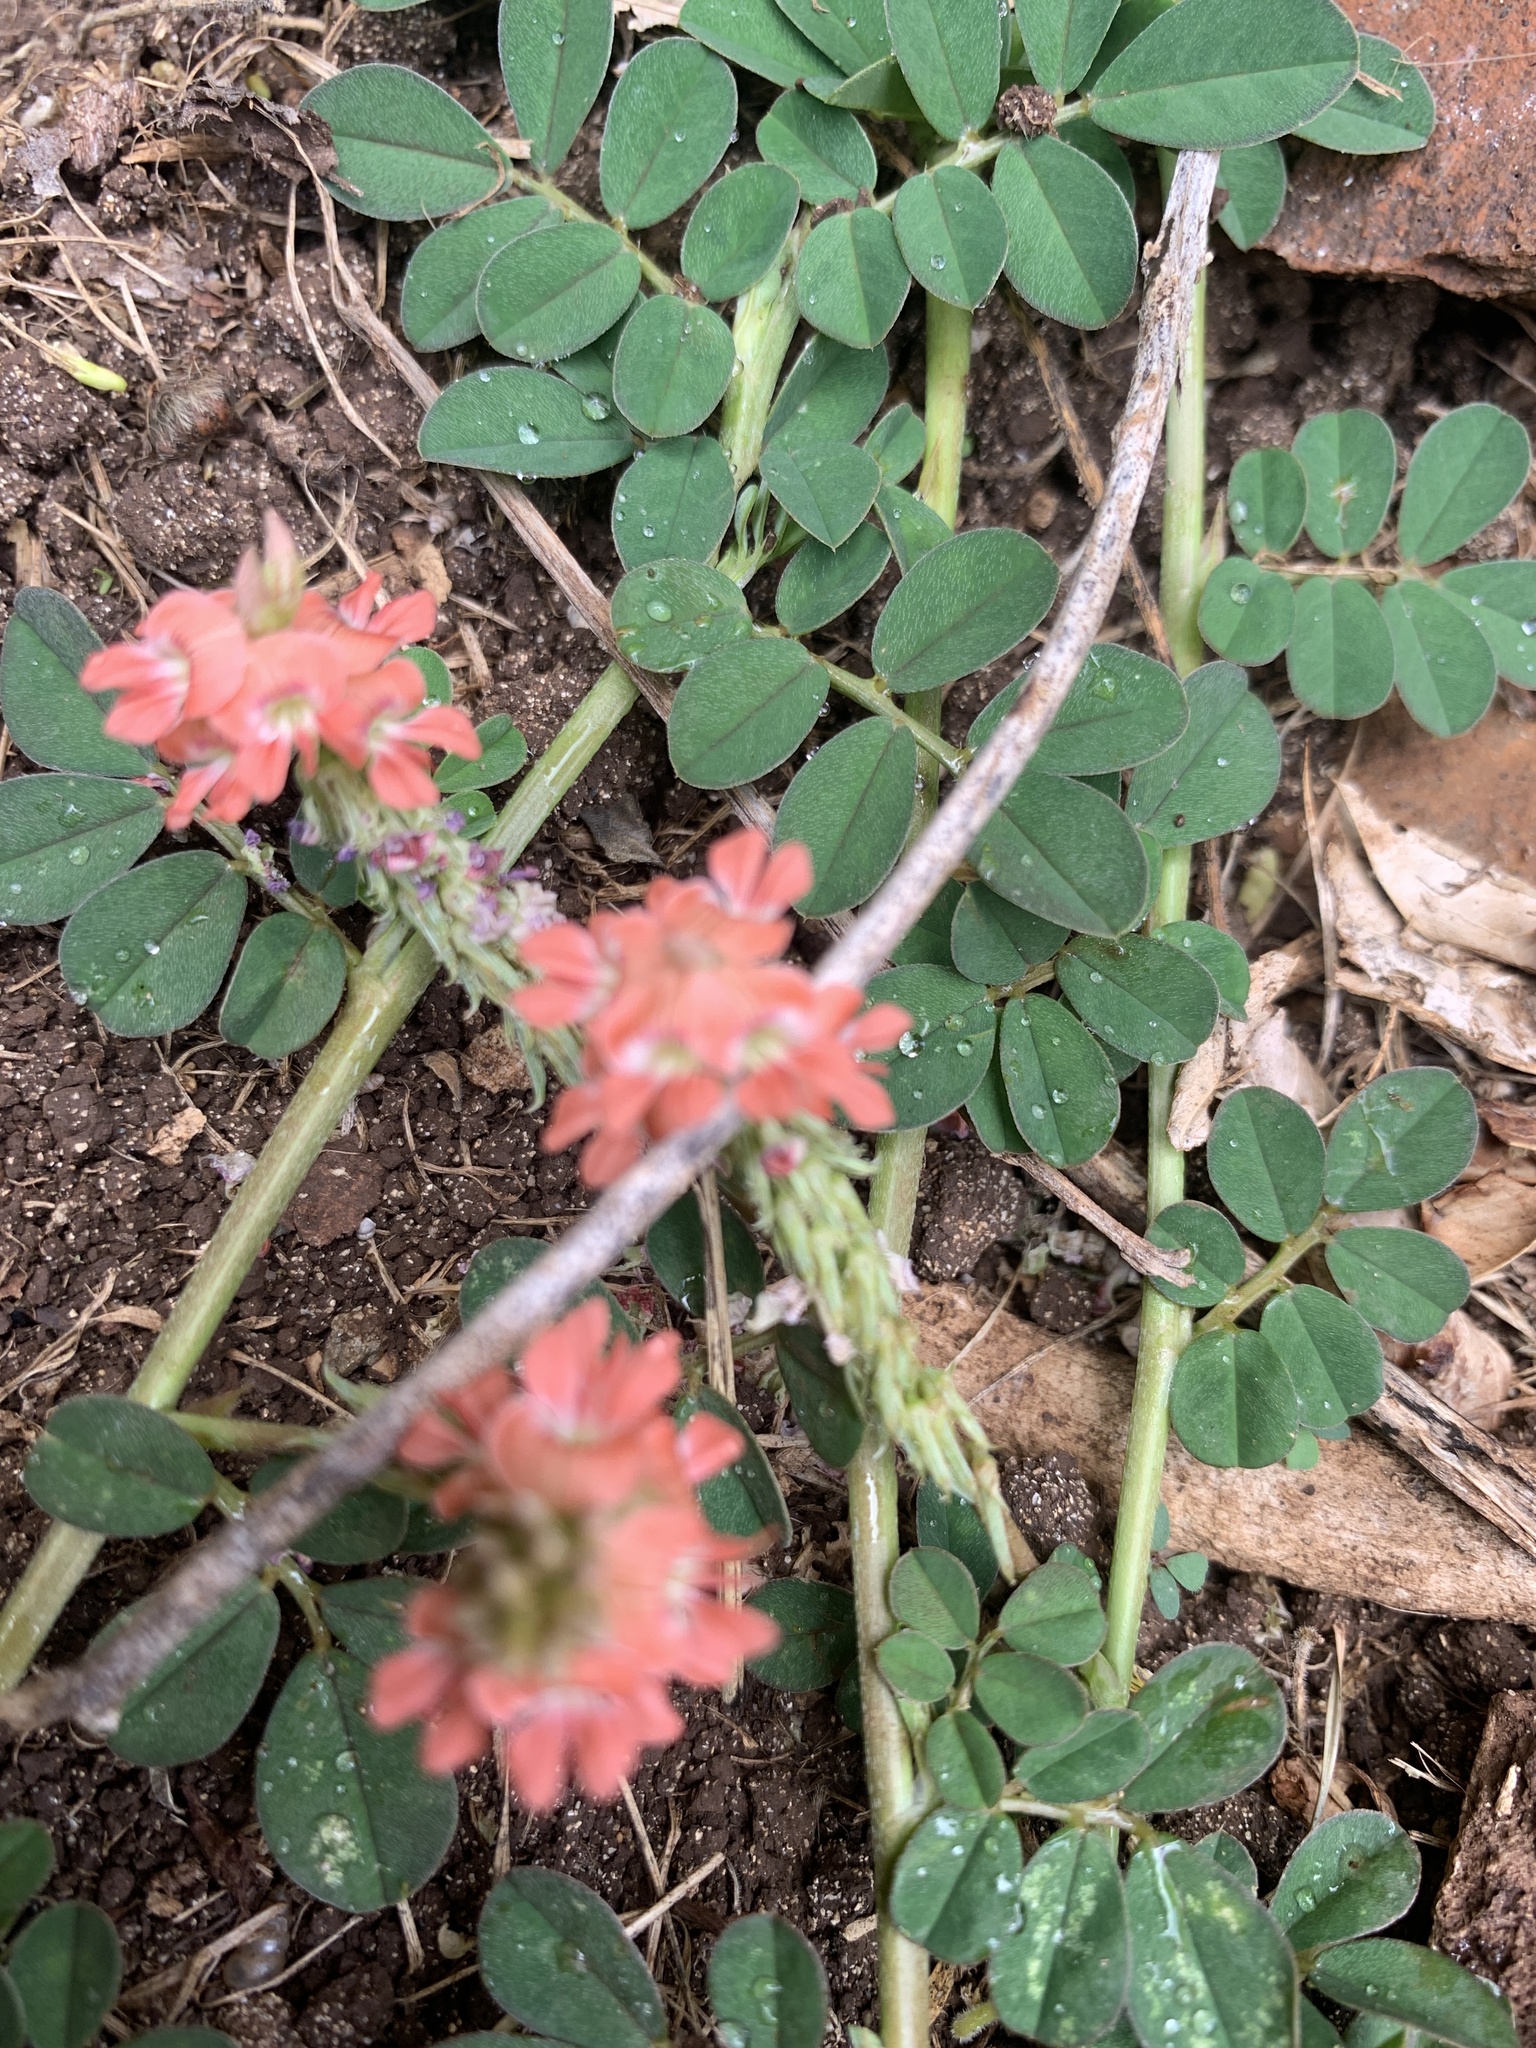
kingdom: Plantae
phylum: Tracheophyta
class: Magnoliopsida
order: Fabales
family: Fabaceae
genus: Indigofera
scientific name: Indigofera spicata
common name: Creeping indigo
